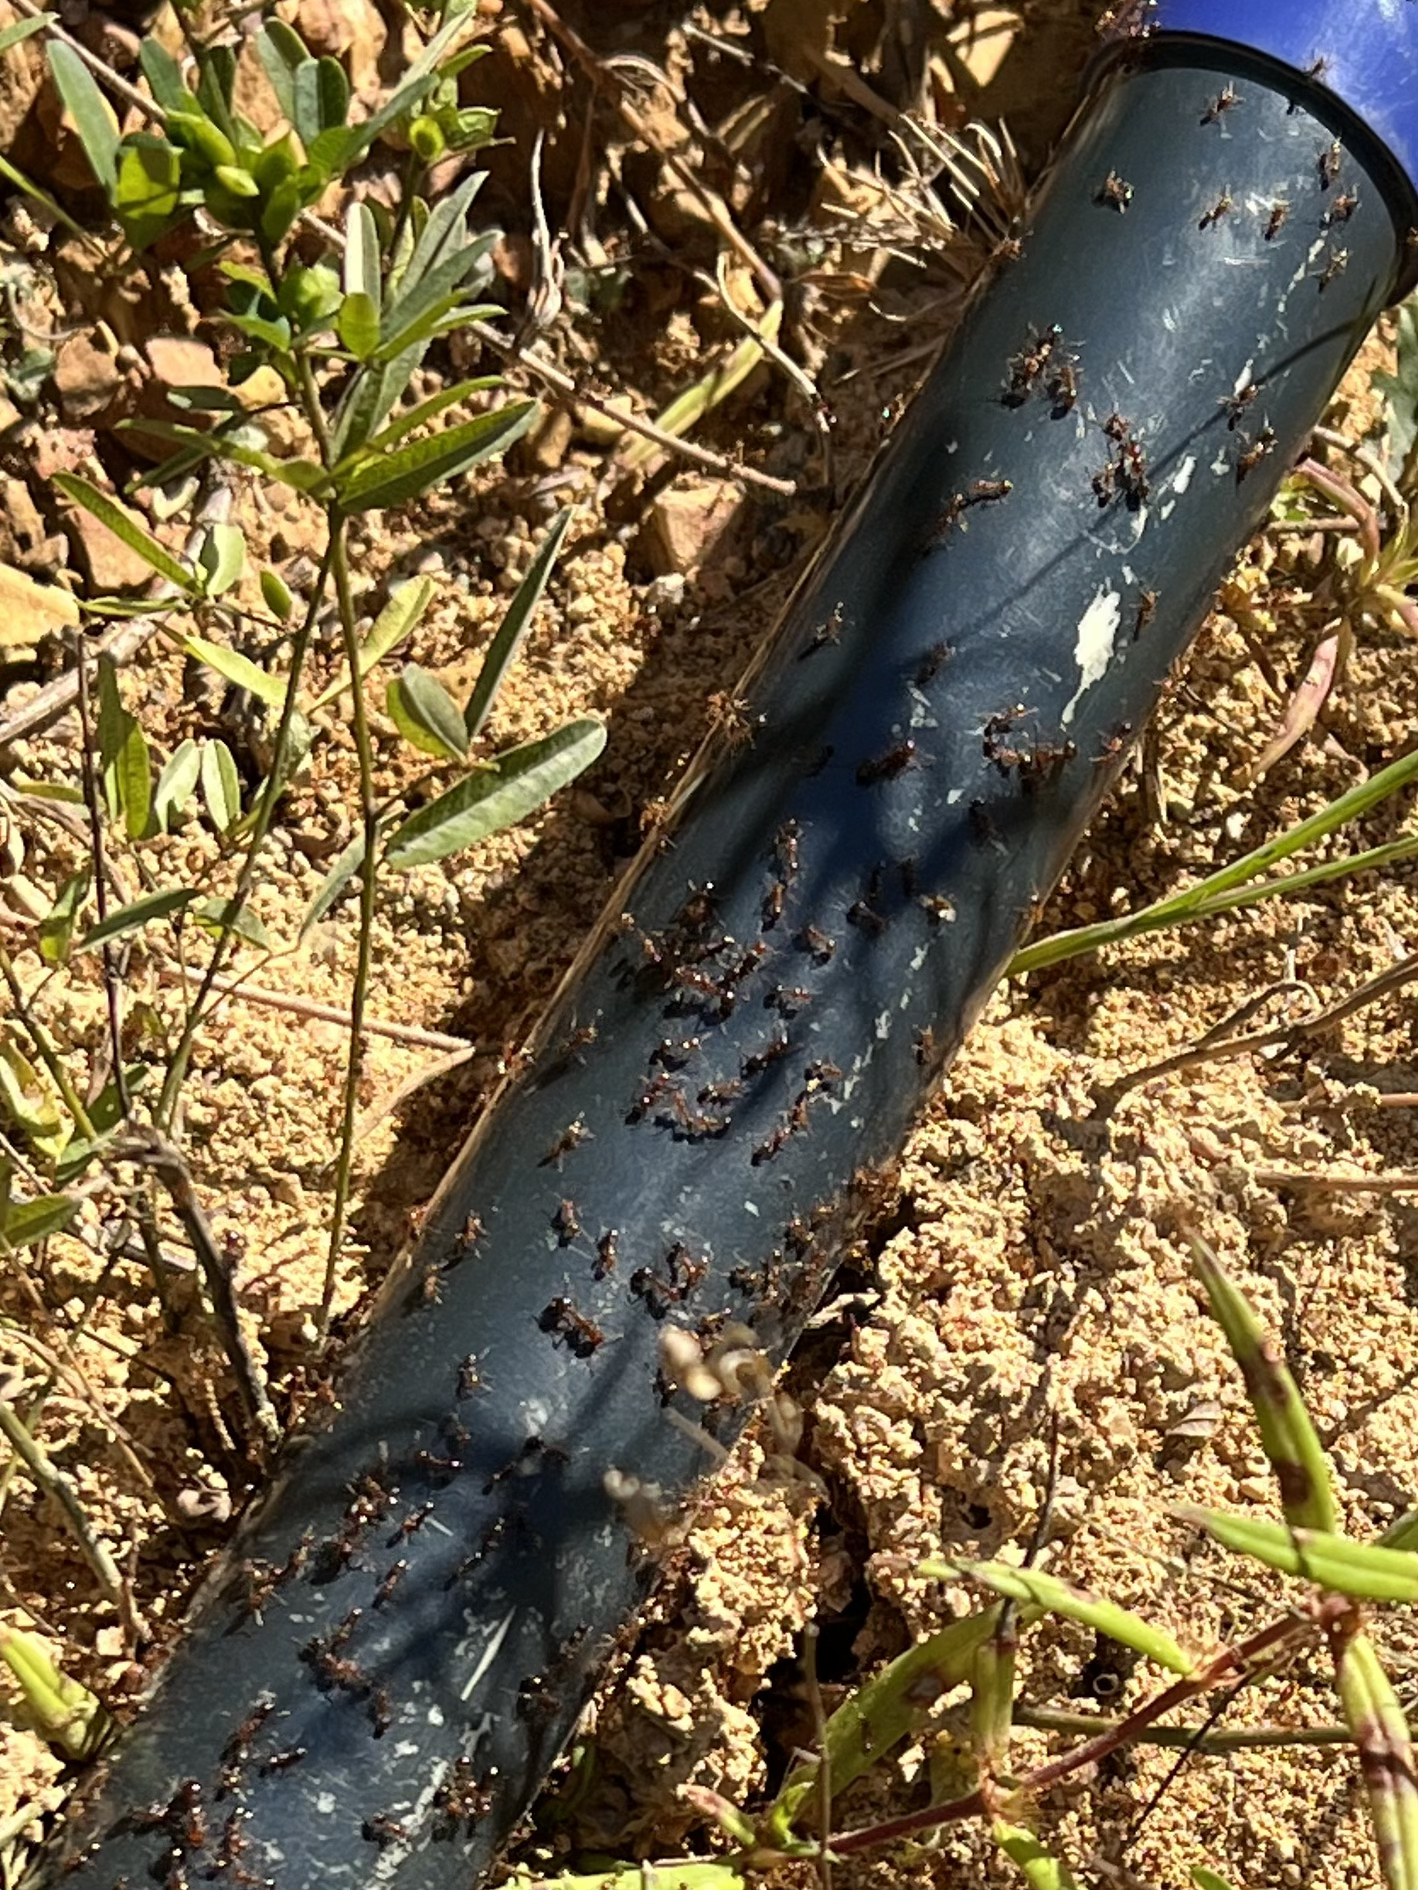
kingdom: Animalia
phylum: Arthropoda
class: Insecta
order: Hymenoptera
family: Formicidae
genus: Solenopsis
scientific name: Solenopsis invicta
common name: Red imported fire ant
